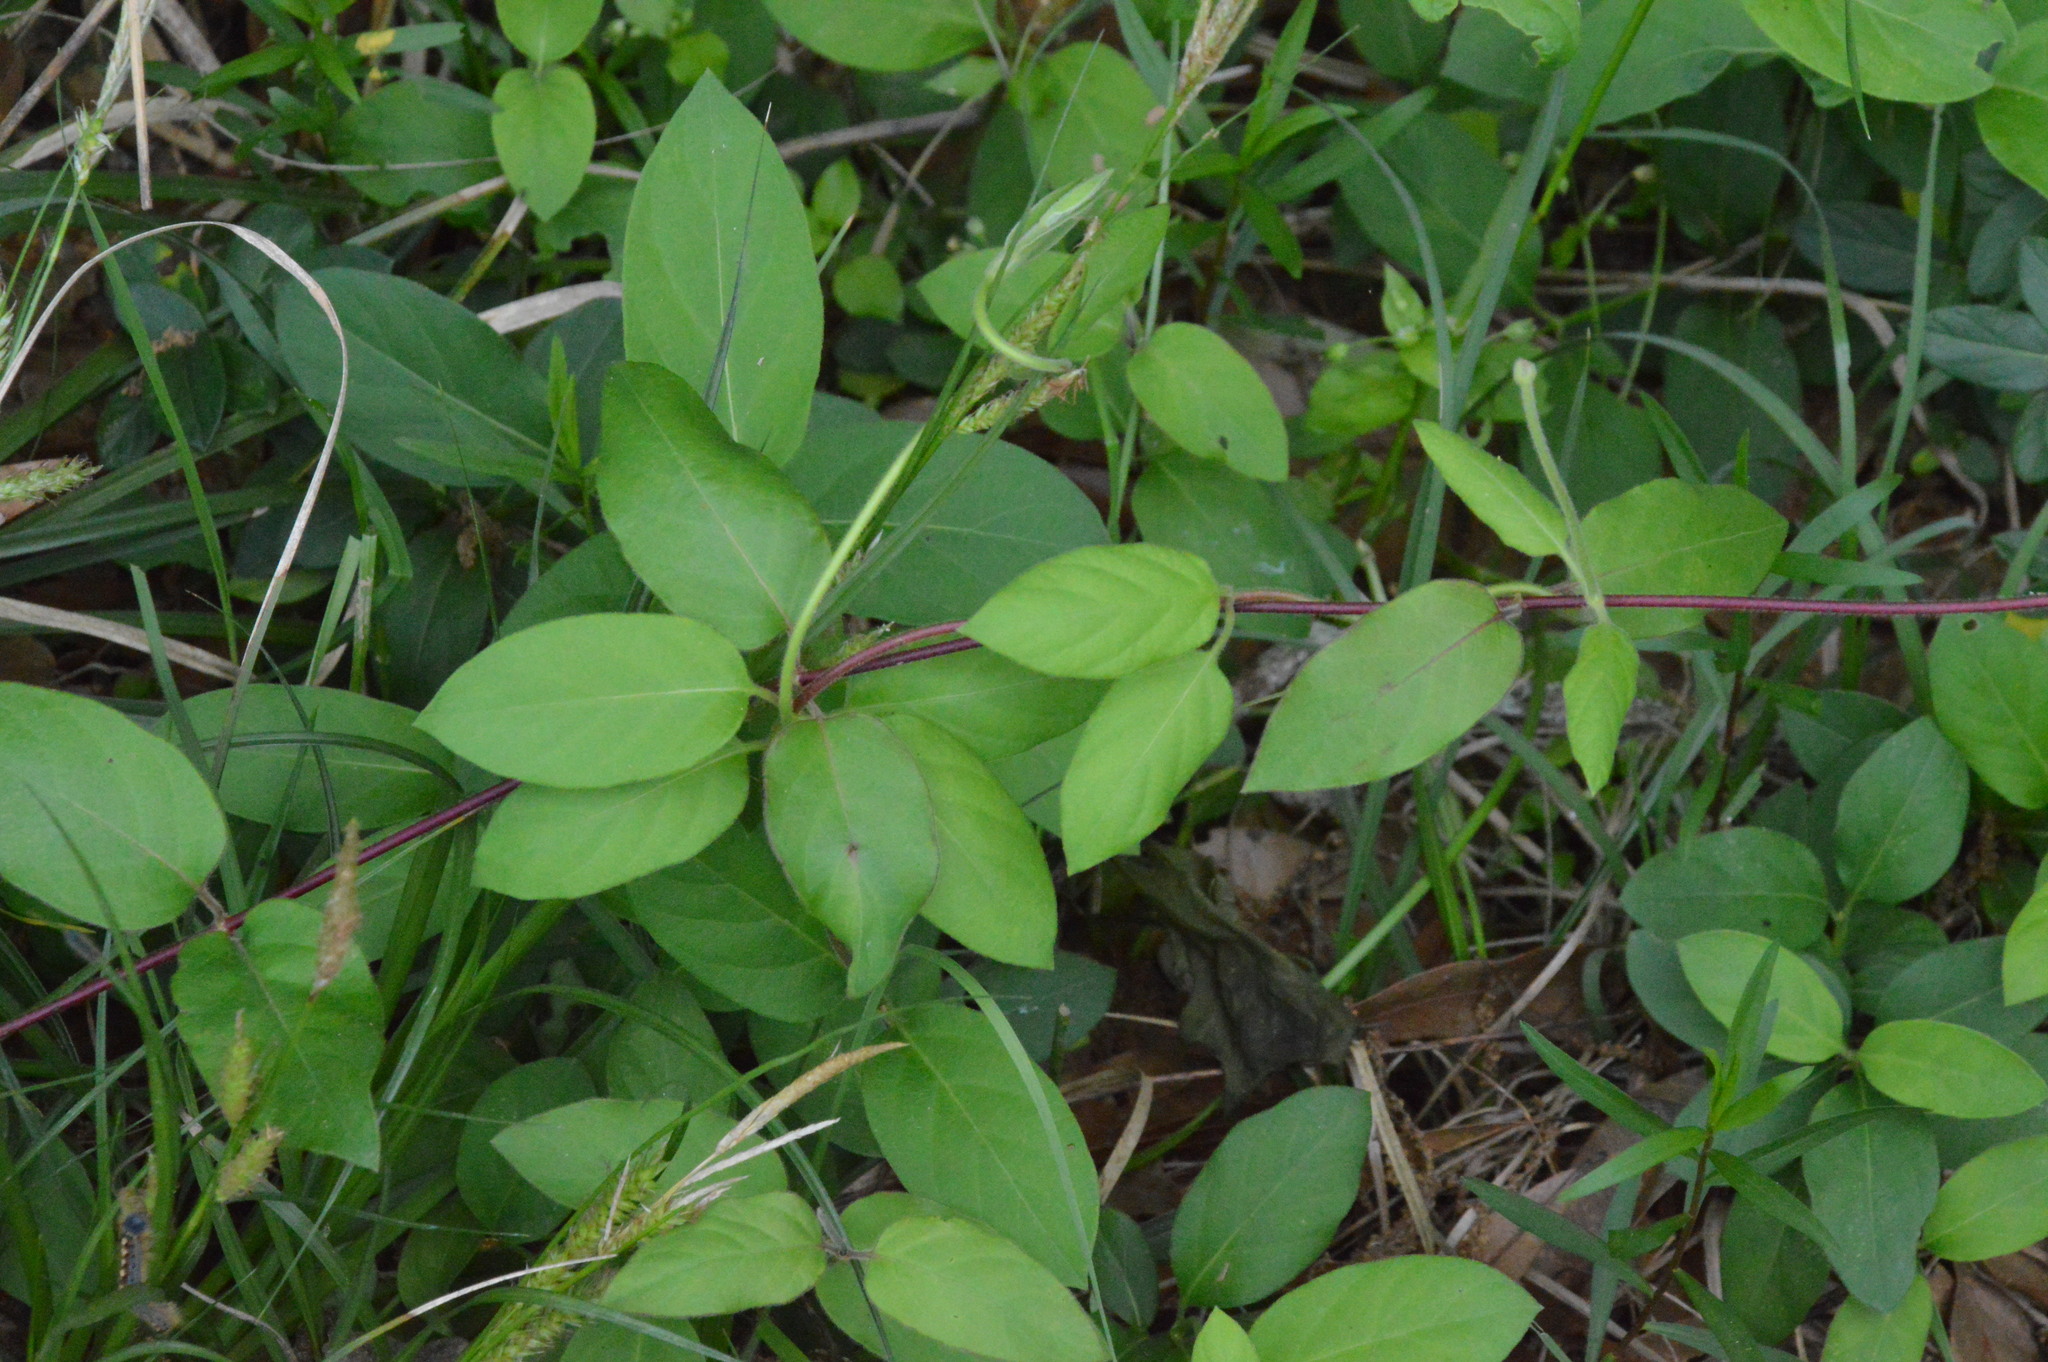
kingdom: Plantae
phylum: Tracheophyta
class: Magnoliopsida
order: Dipsacales
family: Caprifoliaceae
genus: Lonicera
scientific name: Lonicera japonica
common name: Japanese honeysuckle
